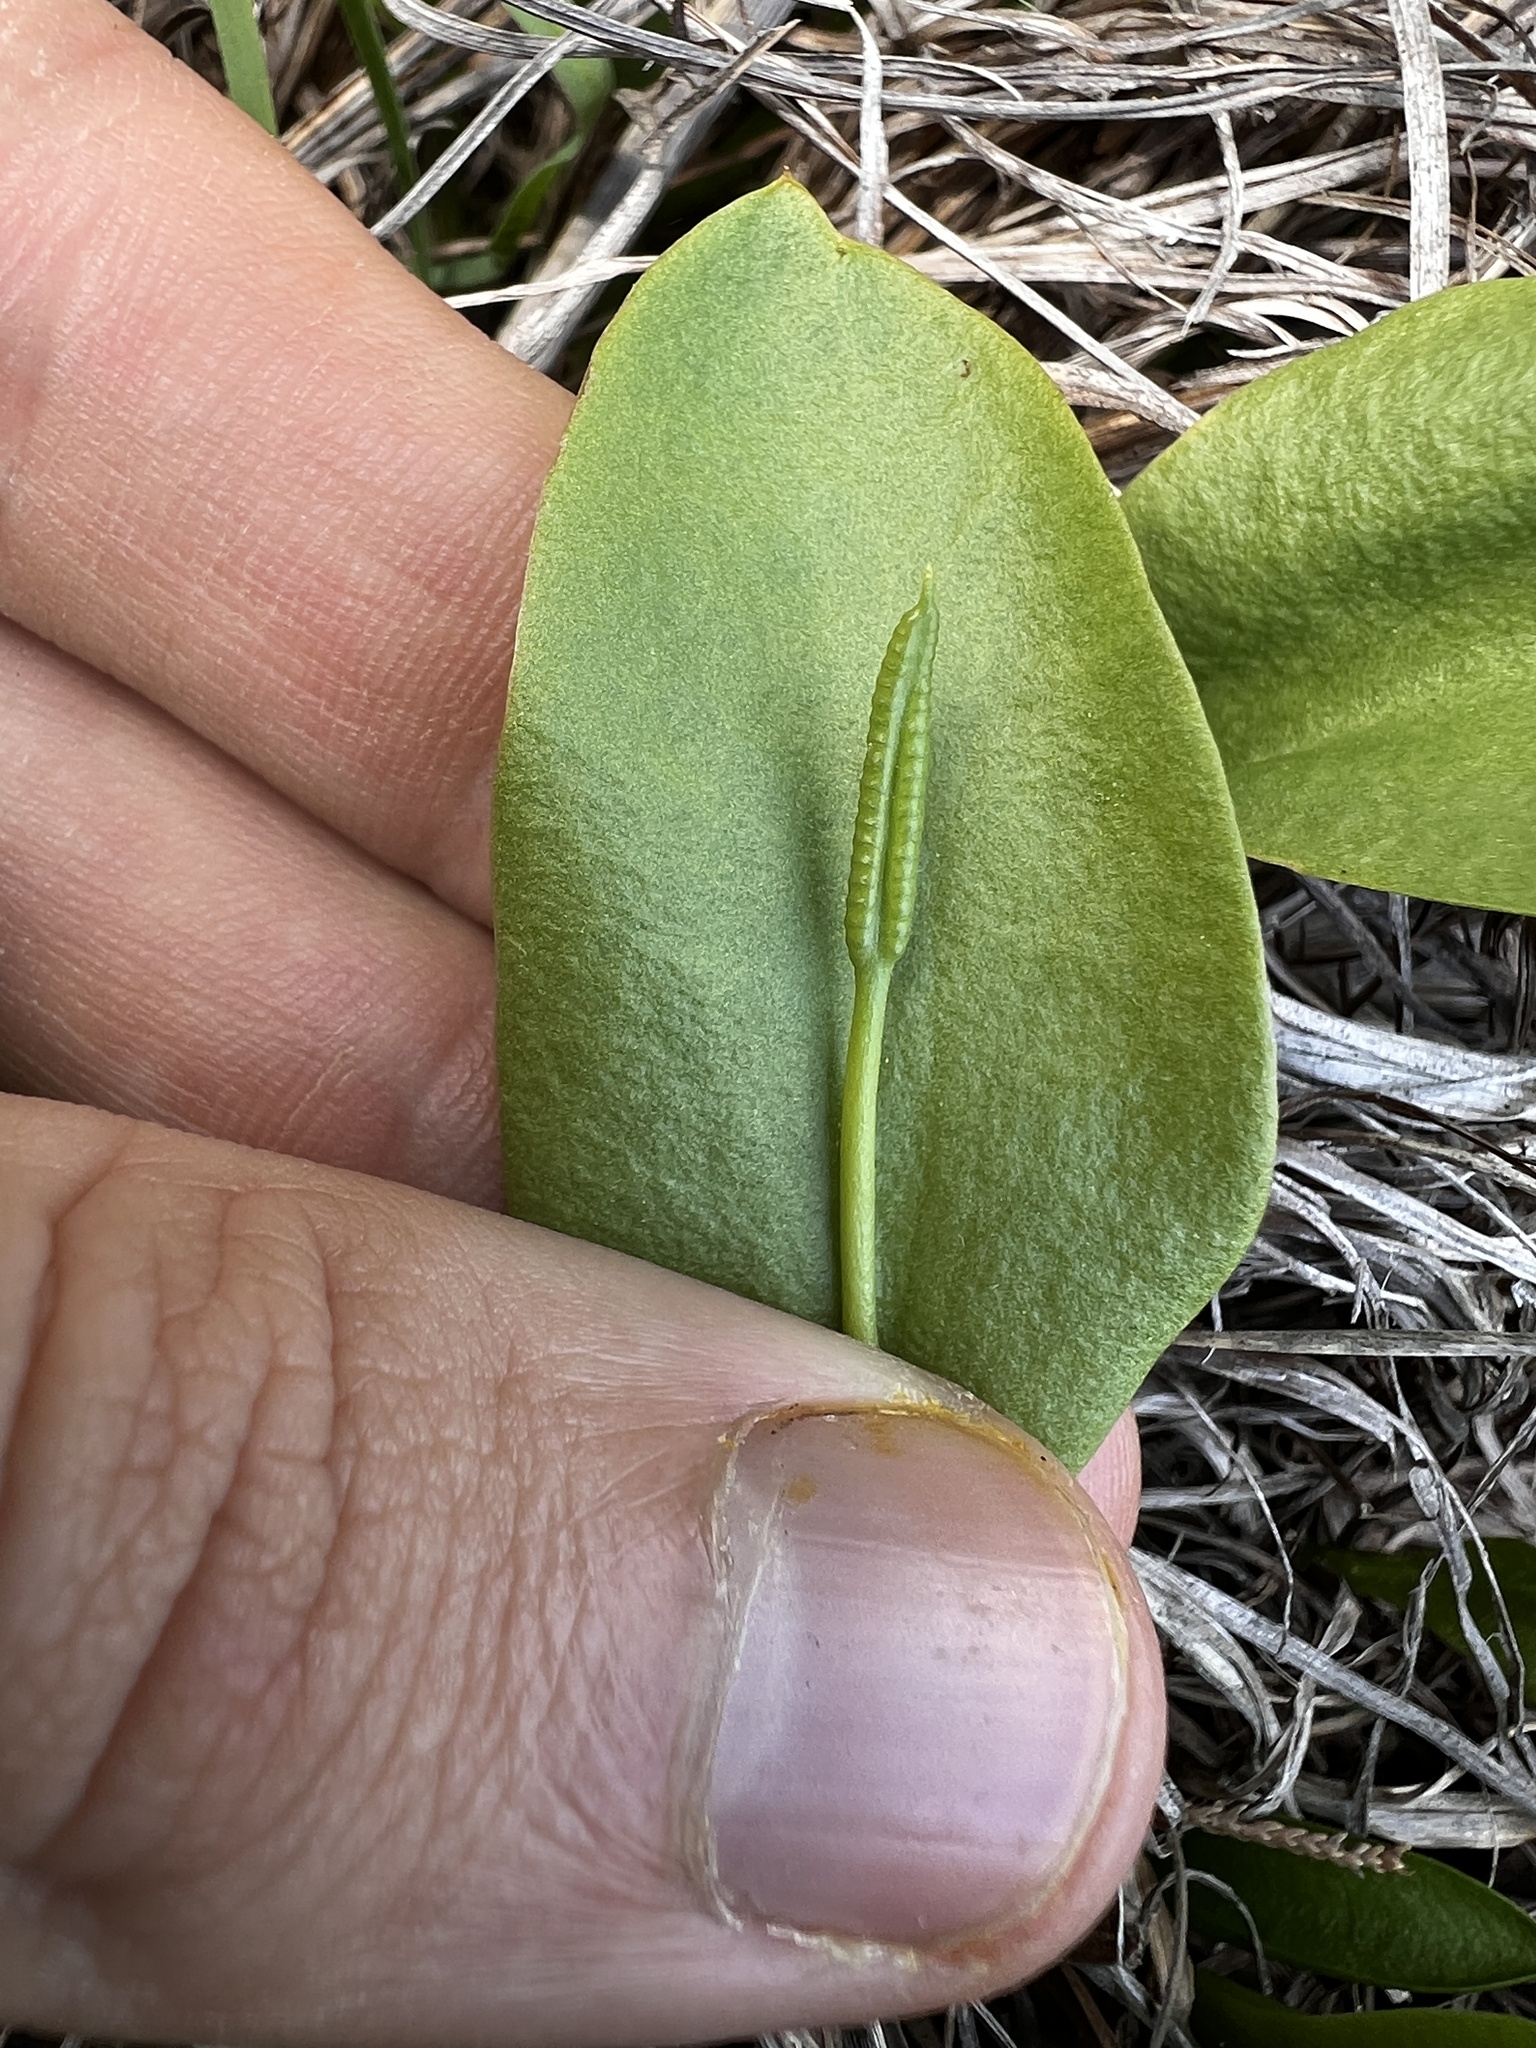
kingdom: Plantae
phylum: Tracheophyta
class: Polypodiopsida
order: Ophioglossales
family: Ophioglossaceae
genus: Ophioglossum
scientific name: Ophioglossum engelmannii
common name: Limestone adder's-tongue
